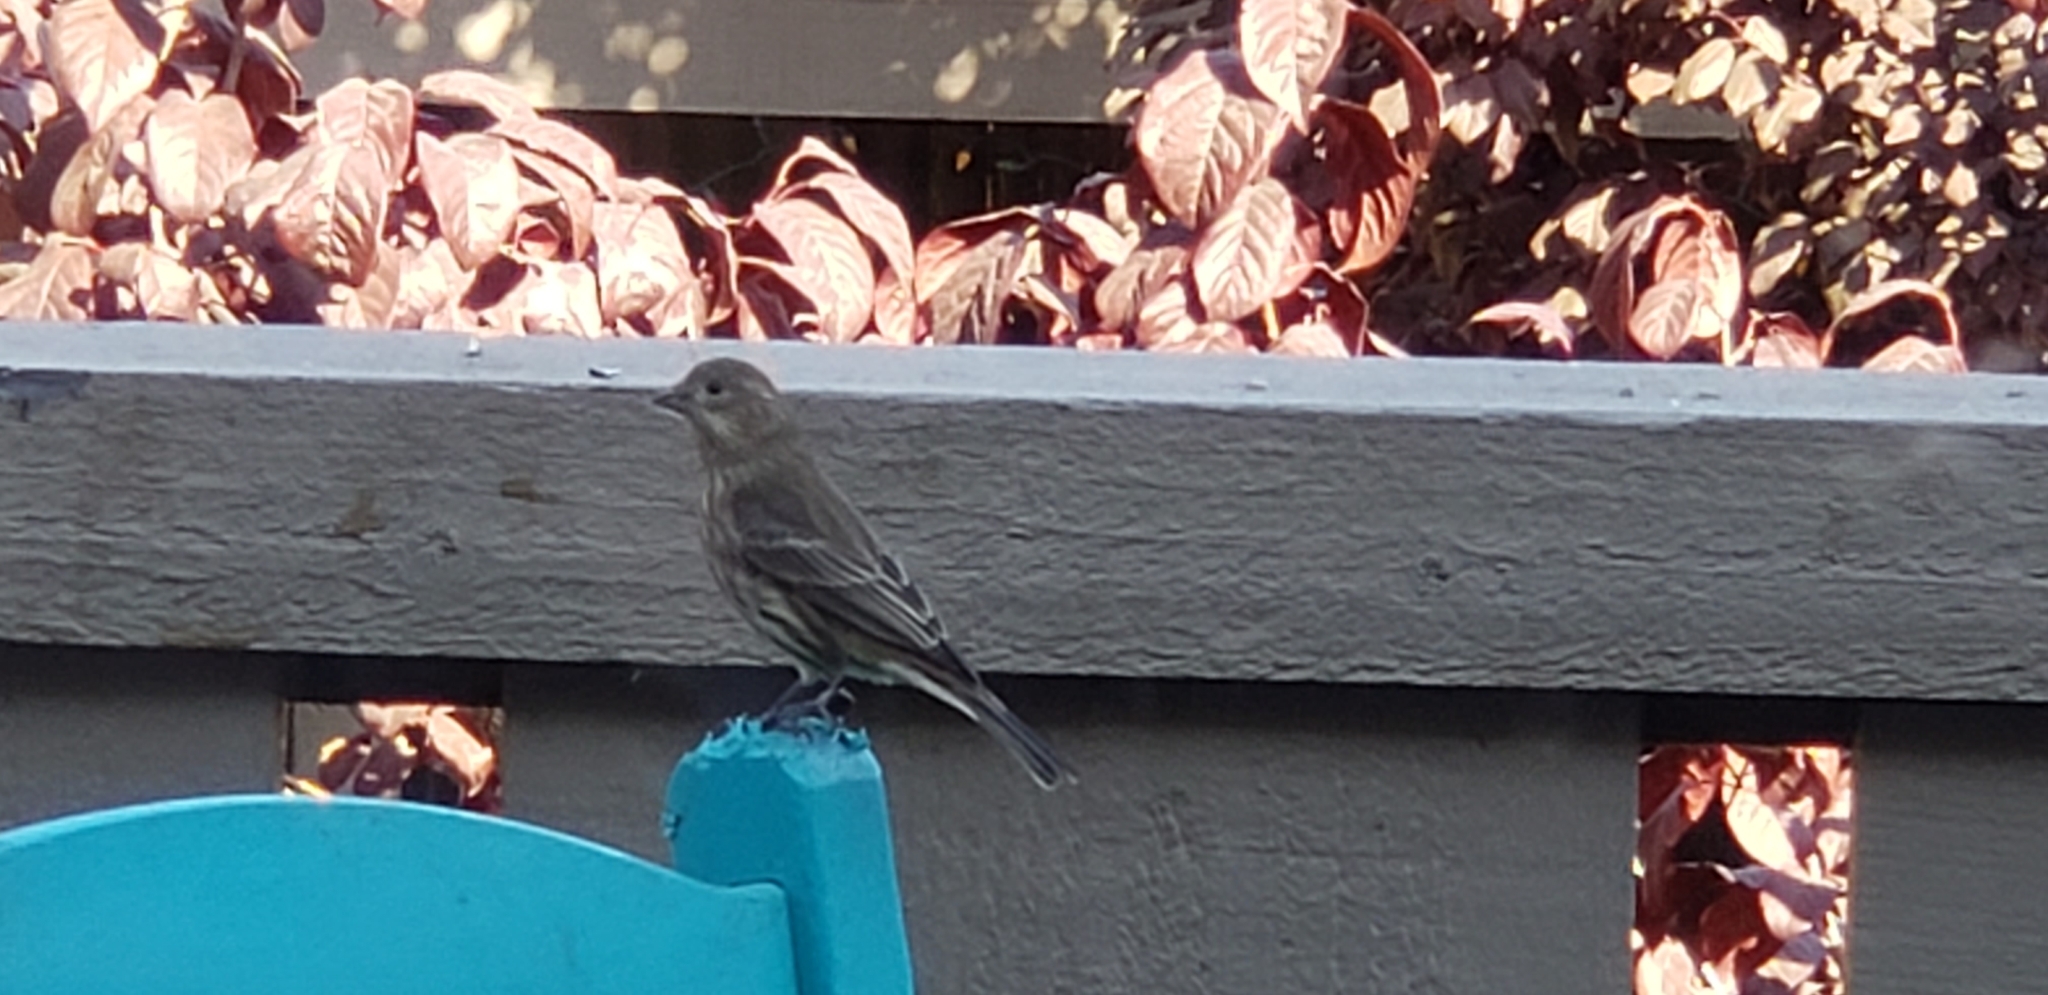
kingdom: Animalia
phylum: Chordata
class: Aves
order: Passeriformes
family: Fringillidae
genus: Haemorhous
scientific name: Haemorhous mexicanus
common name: House finch
